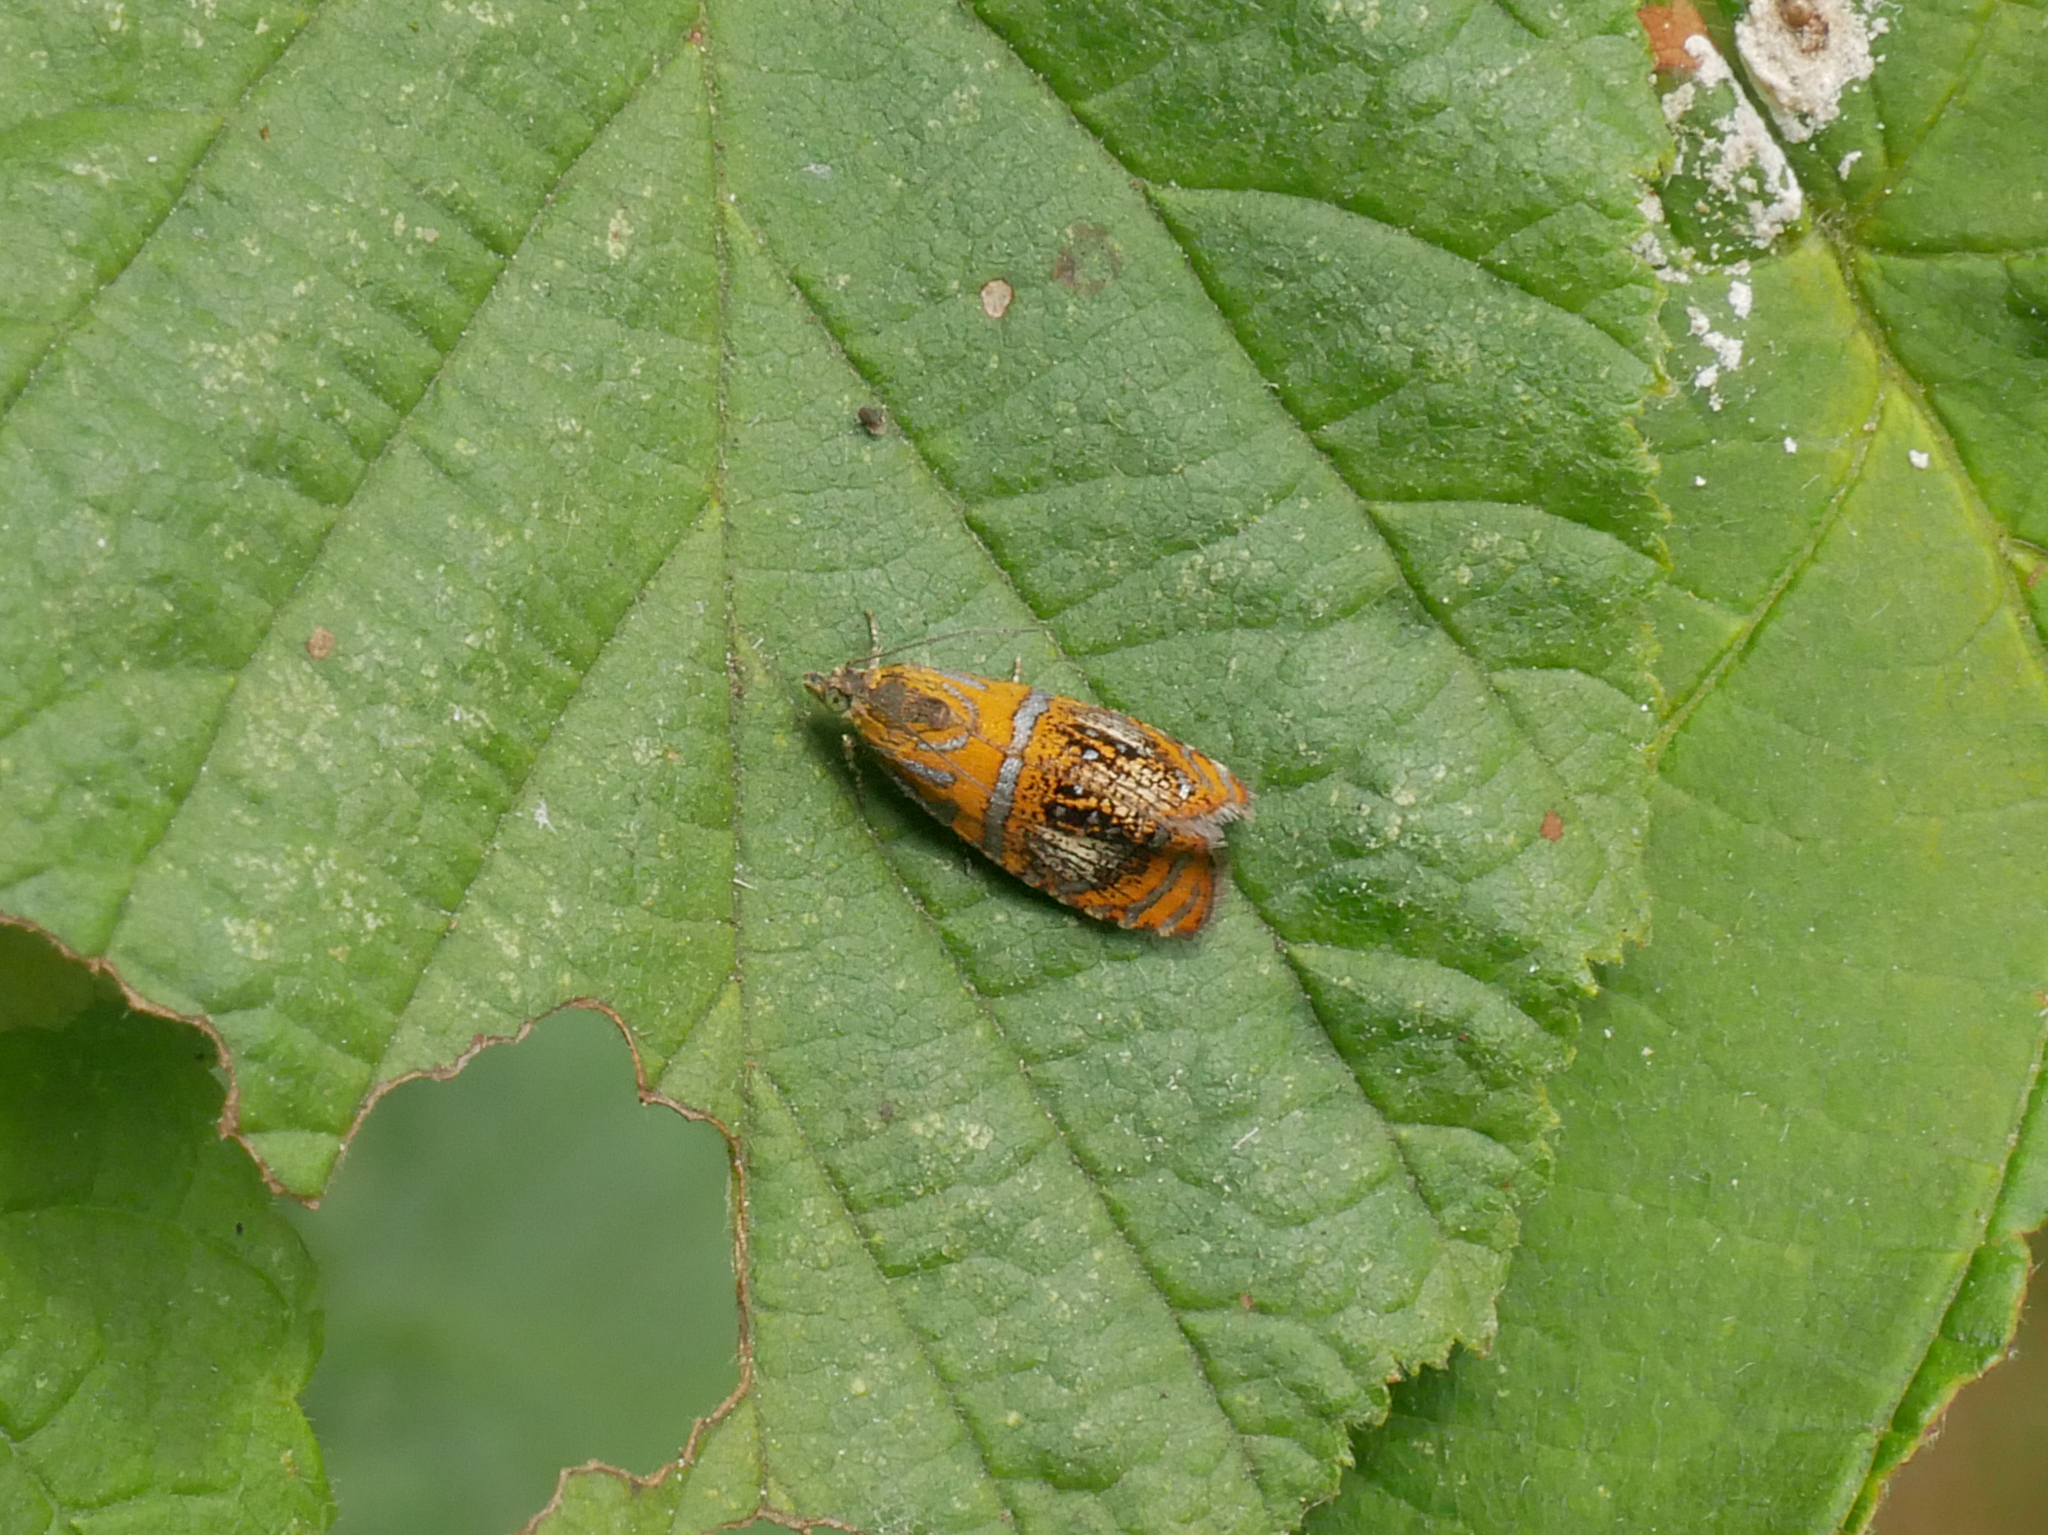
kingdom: Animalia
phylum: Arthropoda
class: Insecta
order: Lepidoptera
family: Tortricidae
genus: Olethreutes
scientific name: Olethreutes arcuella
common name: Arched marble
